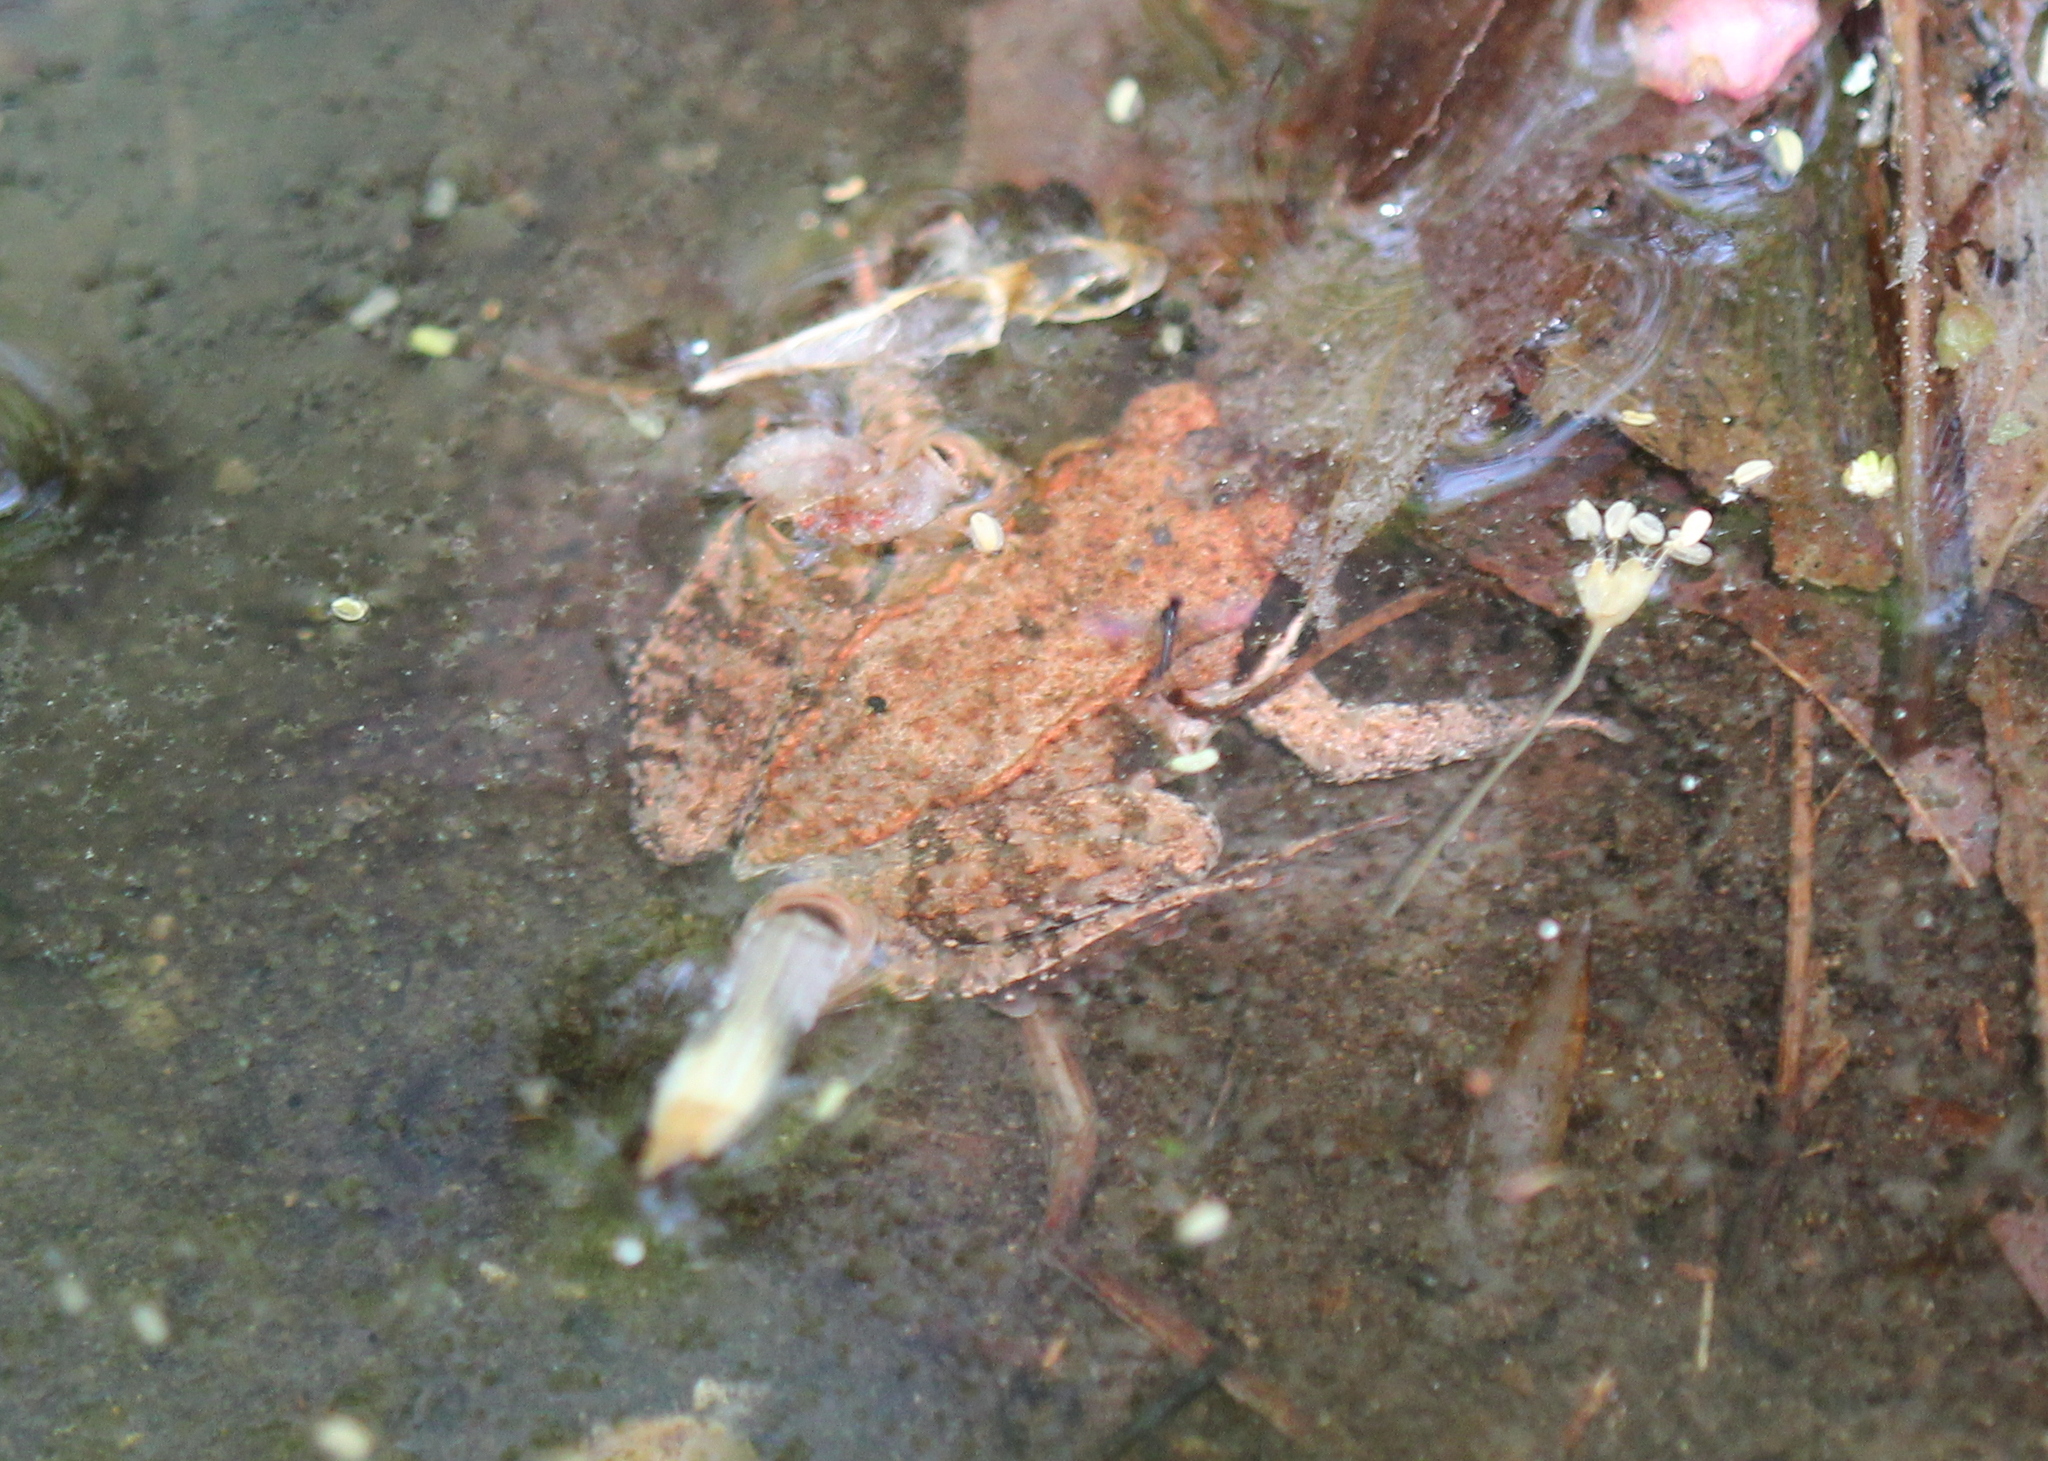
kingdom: Animalia
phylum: Chordata
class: Amphibia
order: Anura
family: Ranidae
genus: Lithobates
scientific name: Lithobates sylvaticus
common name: Wood frog
